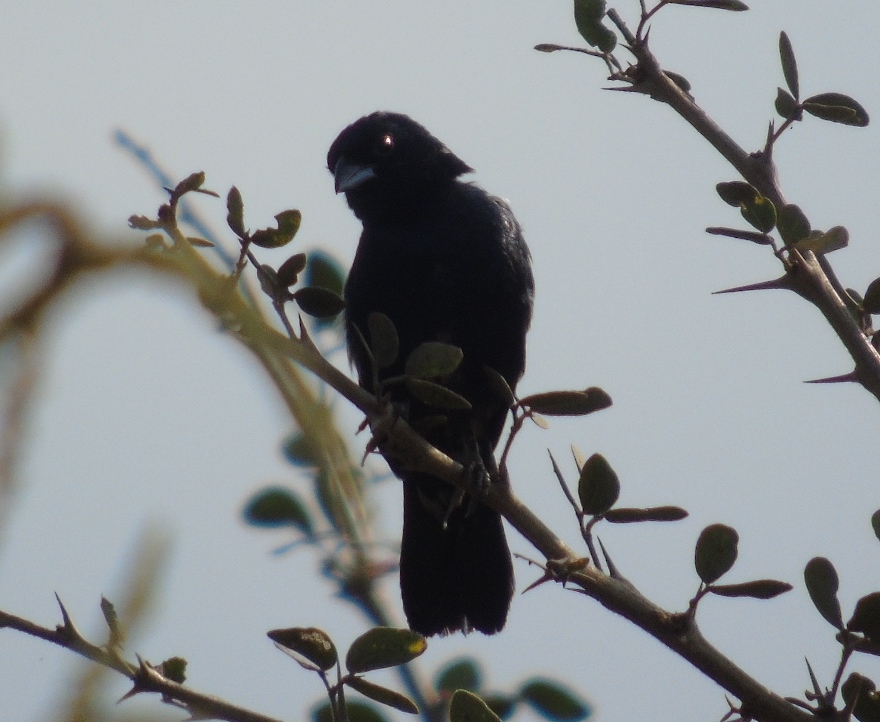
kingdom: Animalia
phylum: Chordata
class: Aves
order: Passeriformes
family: Thraupidae
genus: Volatinia
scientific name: Volatinia jacarina
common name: Blue-black grassquit
